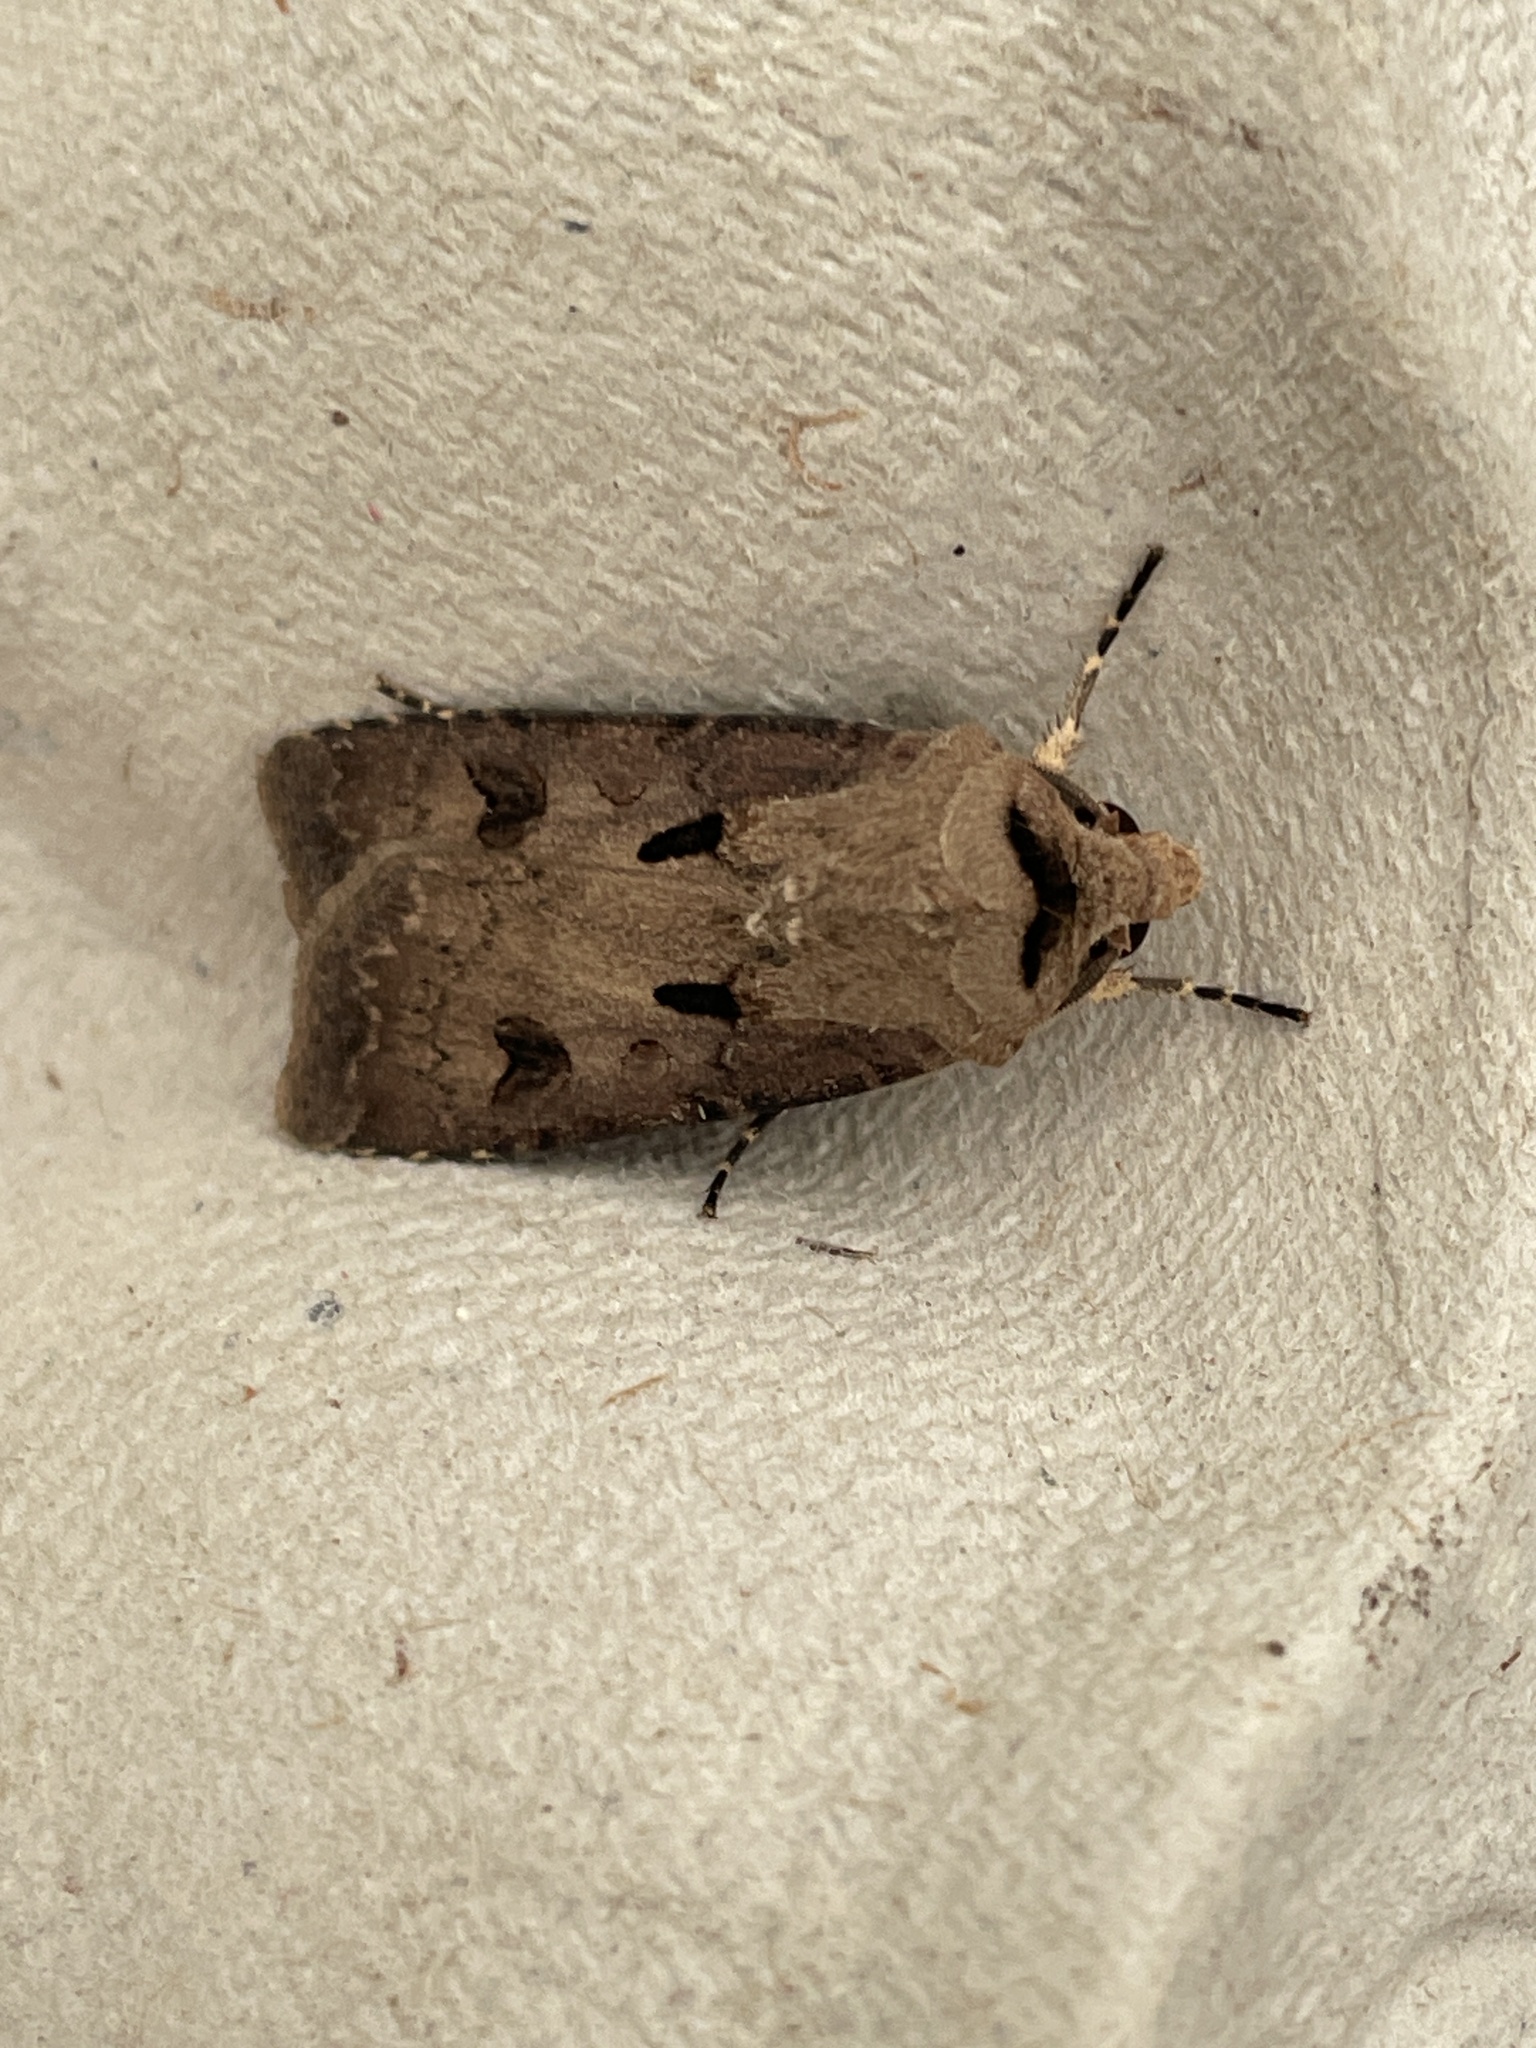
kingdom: Animalia
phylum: Arthropoda
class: Insecta
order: Lepidoptera
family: Noctuidae
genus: Agrotis
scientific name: Agrotis exclamationis
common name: Heart and dart
